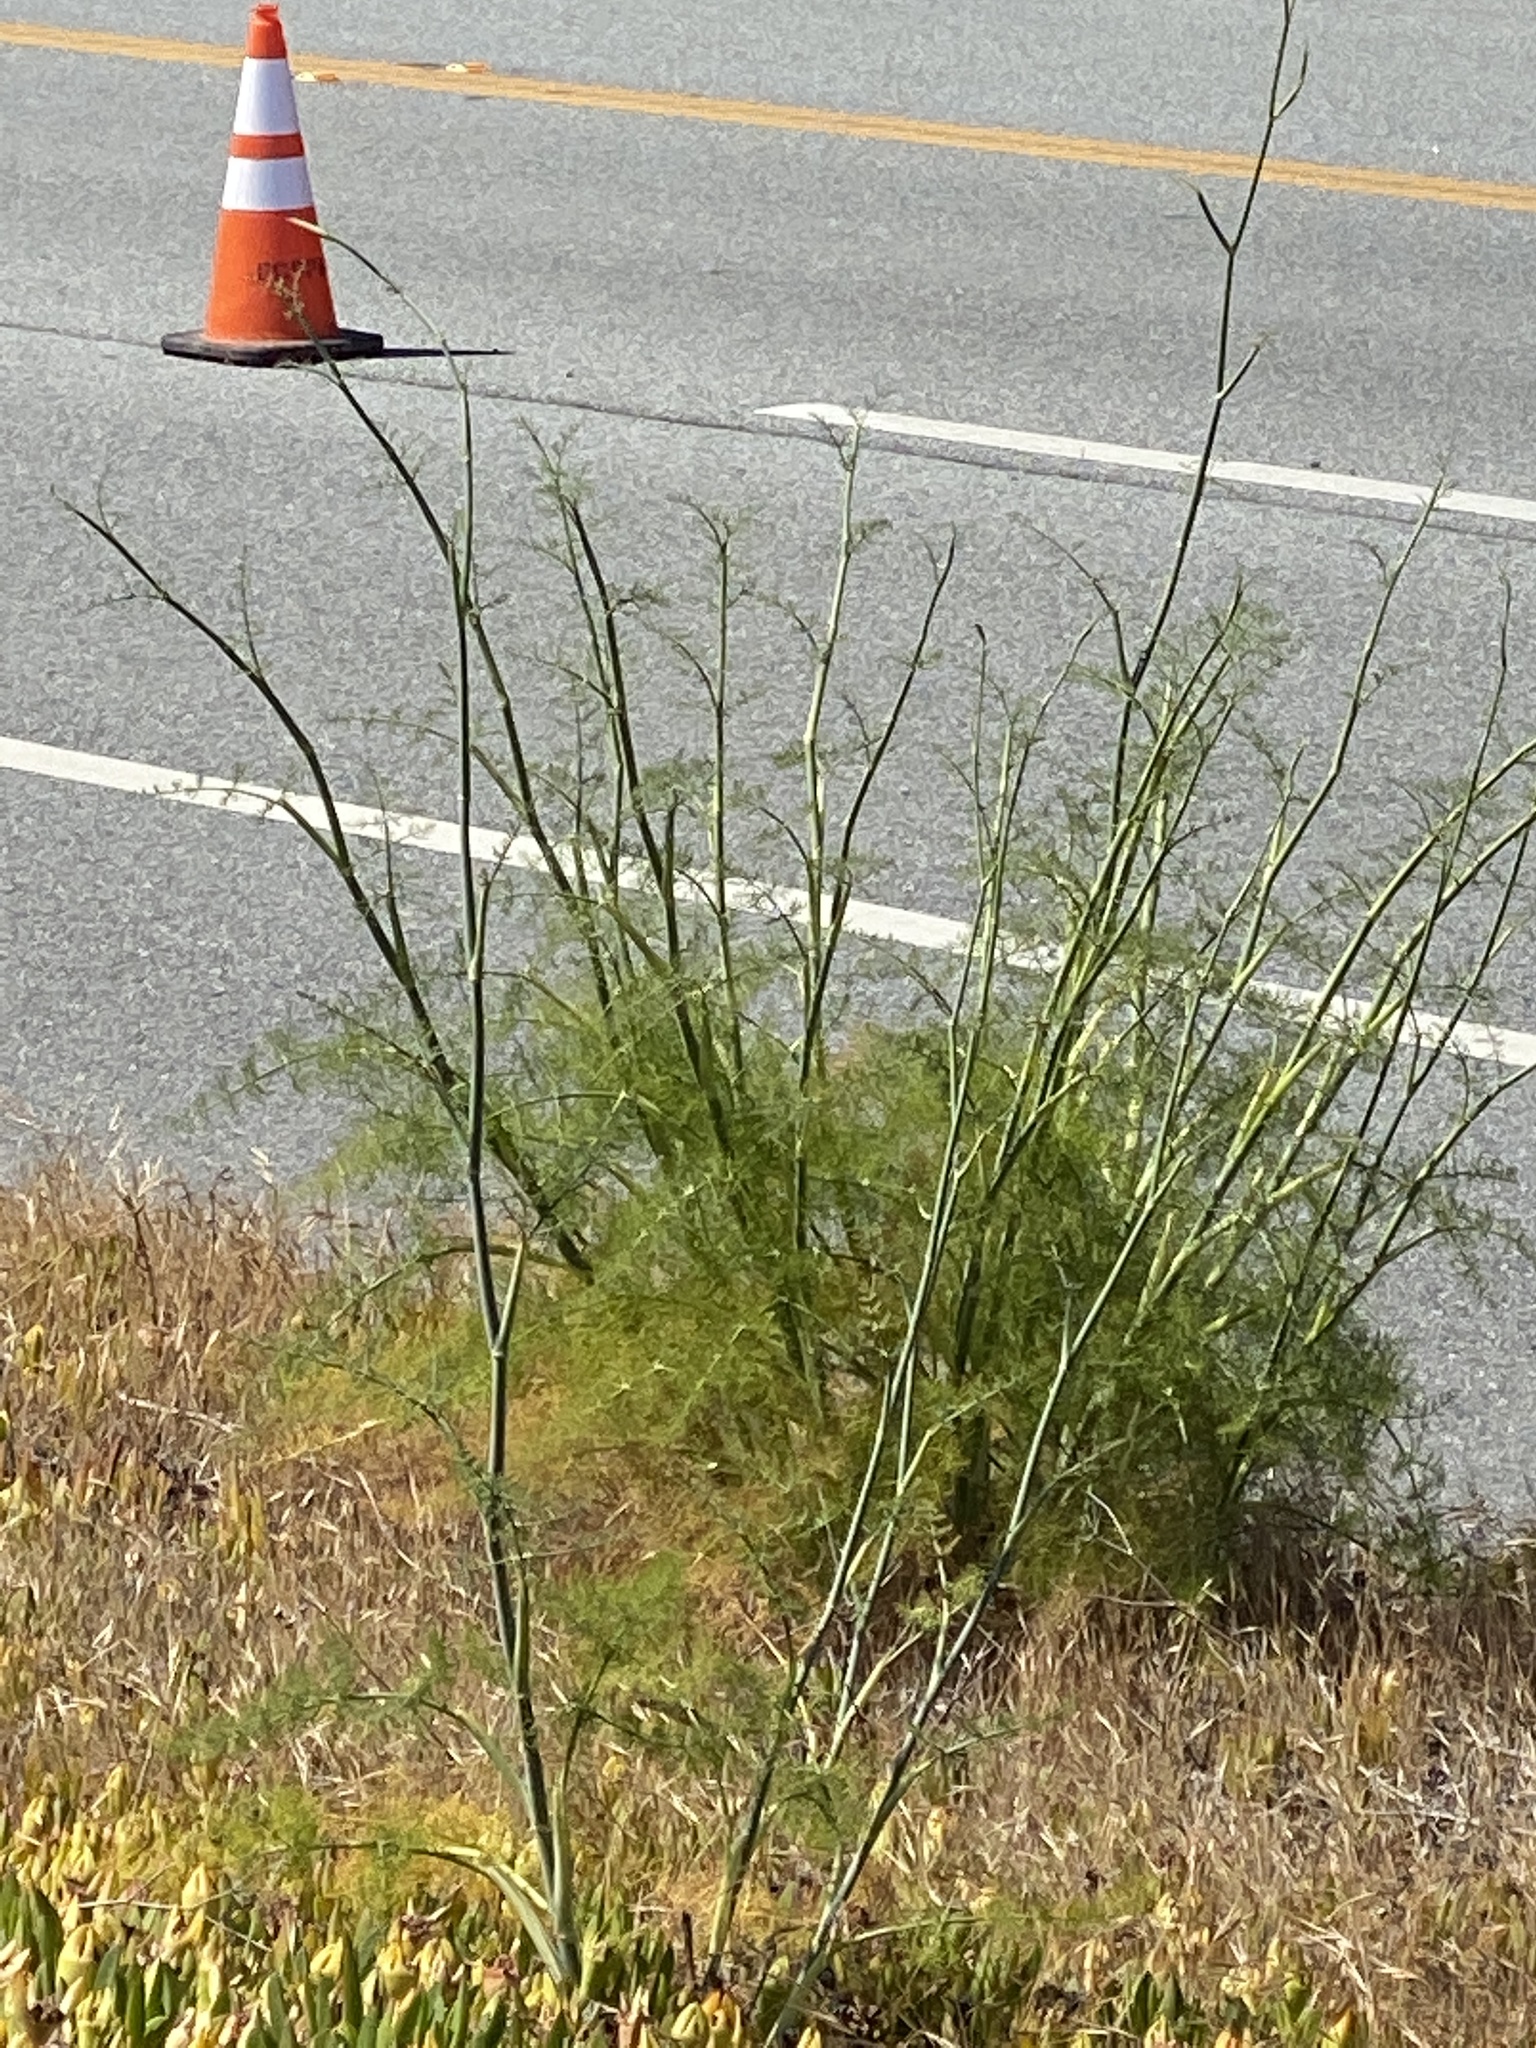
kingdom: Plantae
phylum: Tracheophyta
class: Magnoliopsida
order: Apiales
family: Apiaceae
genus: Foeniculum
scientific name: Foeniculum vulgare
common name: Fennel
